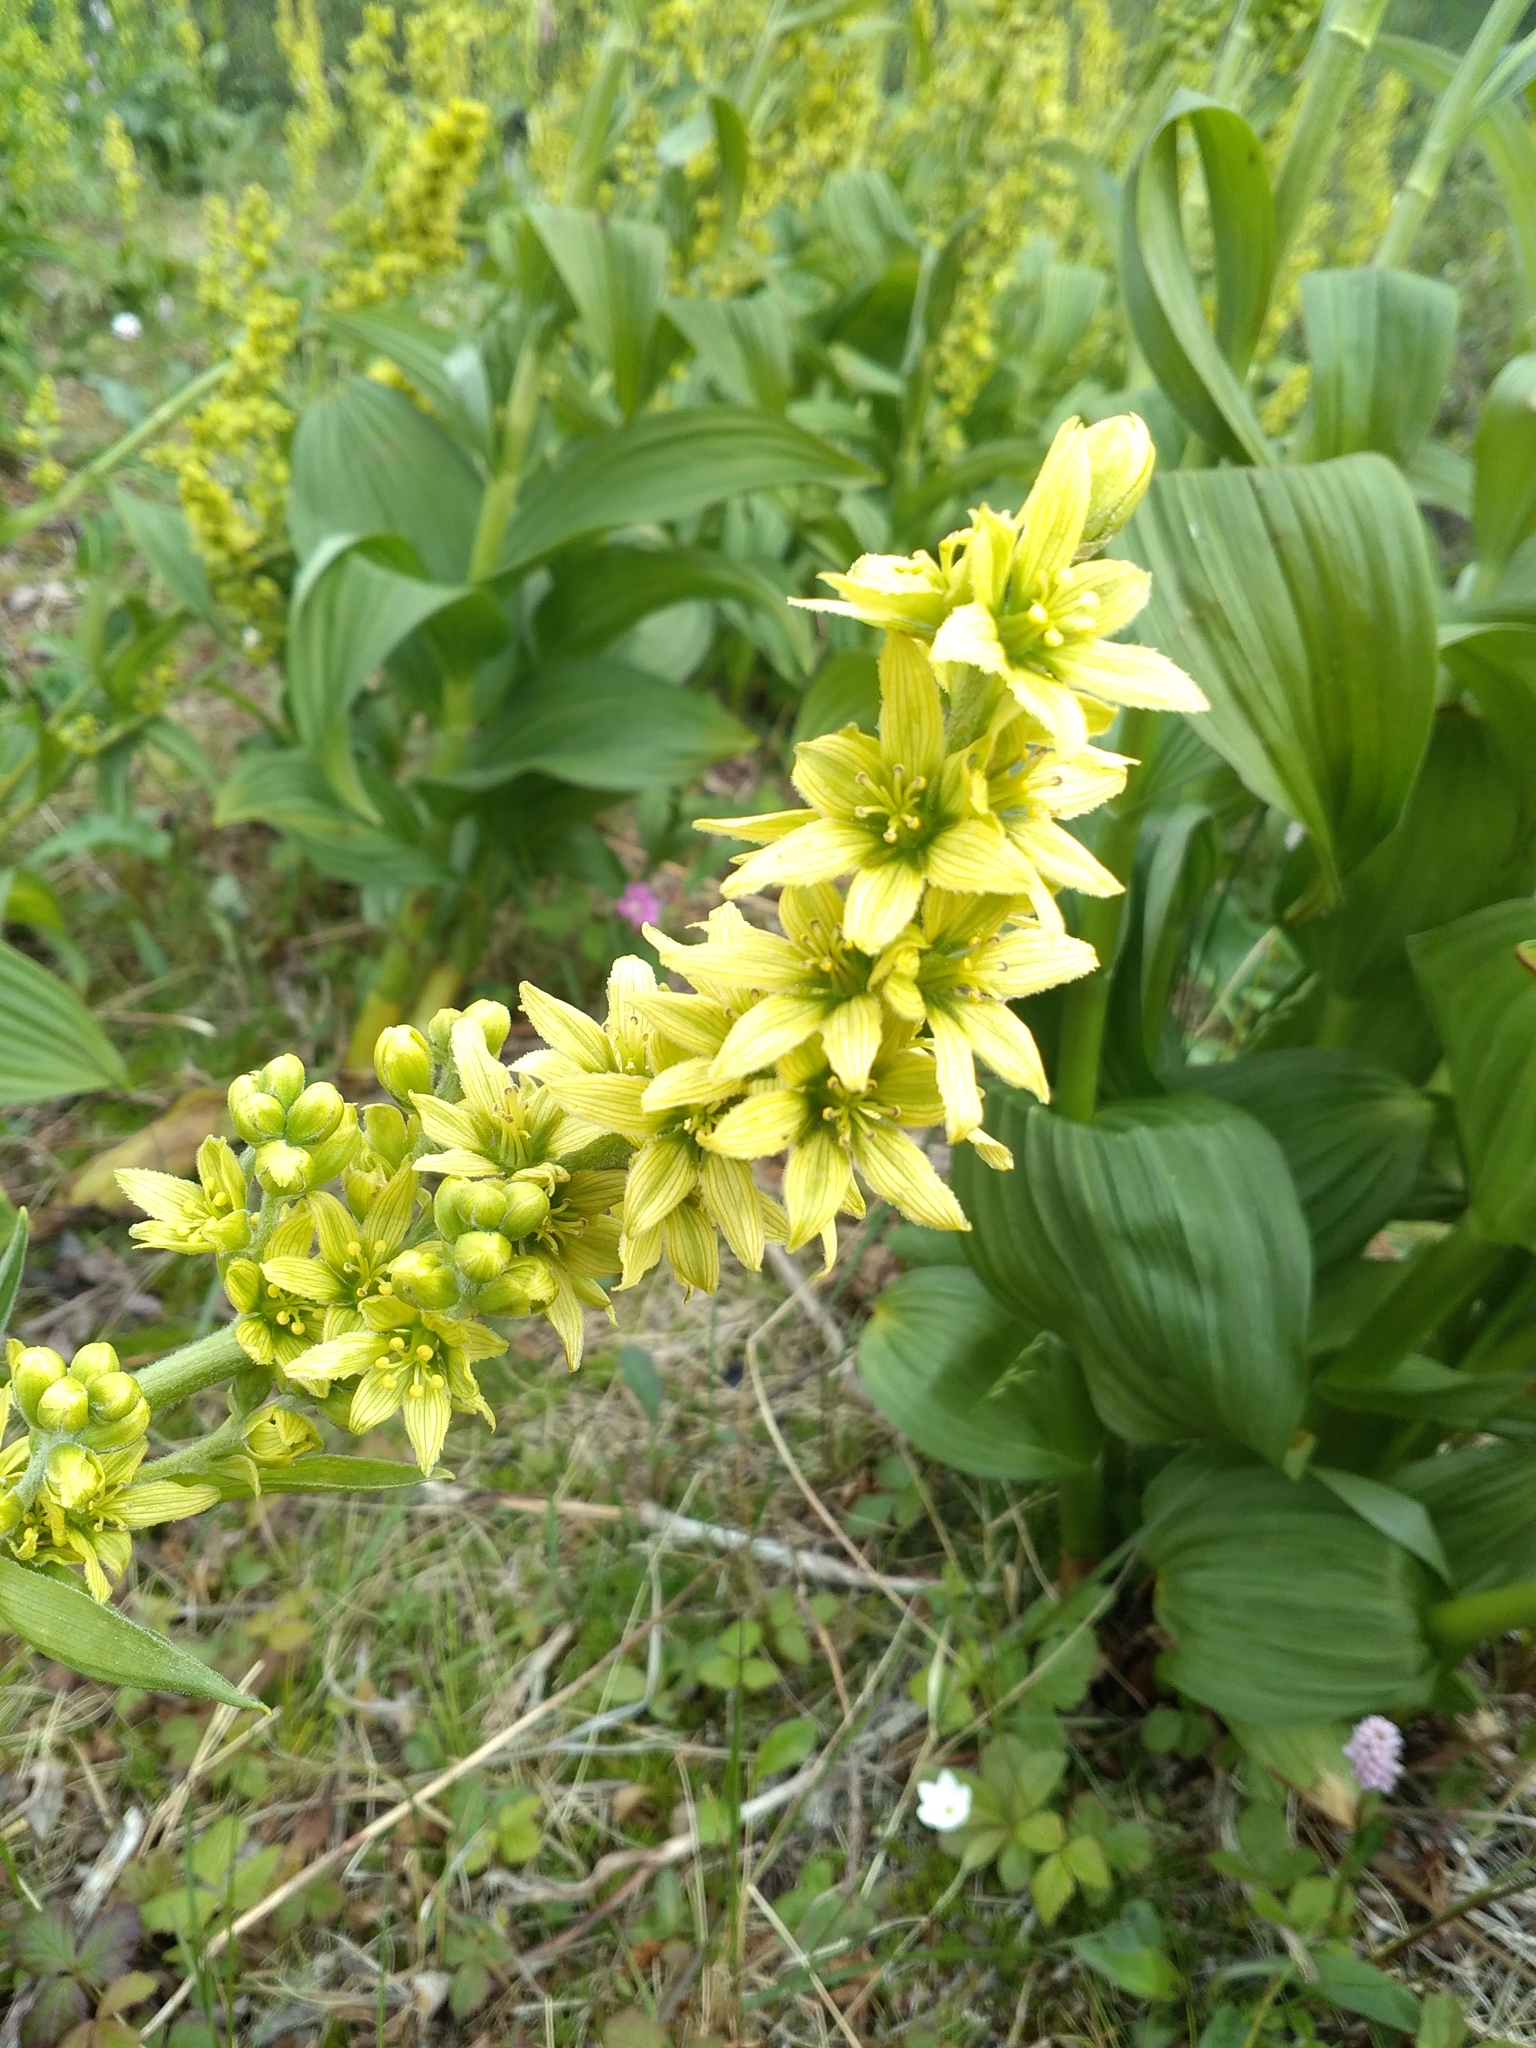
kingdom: Plantae
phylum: Tracheophyta
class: Liliopsida
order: Liliales
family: Melanthiaceae
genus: Veratrum
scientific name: Veratrum lobelianum
